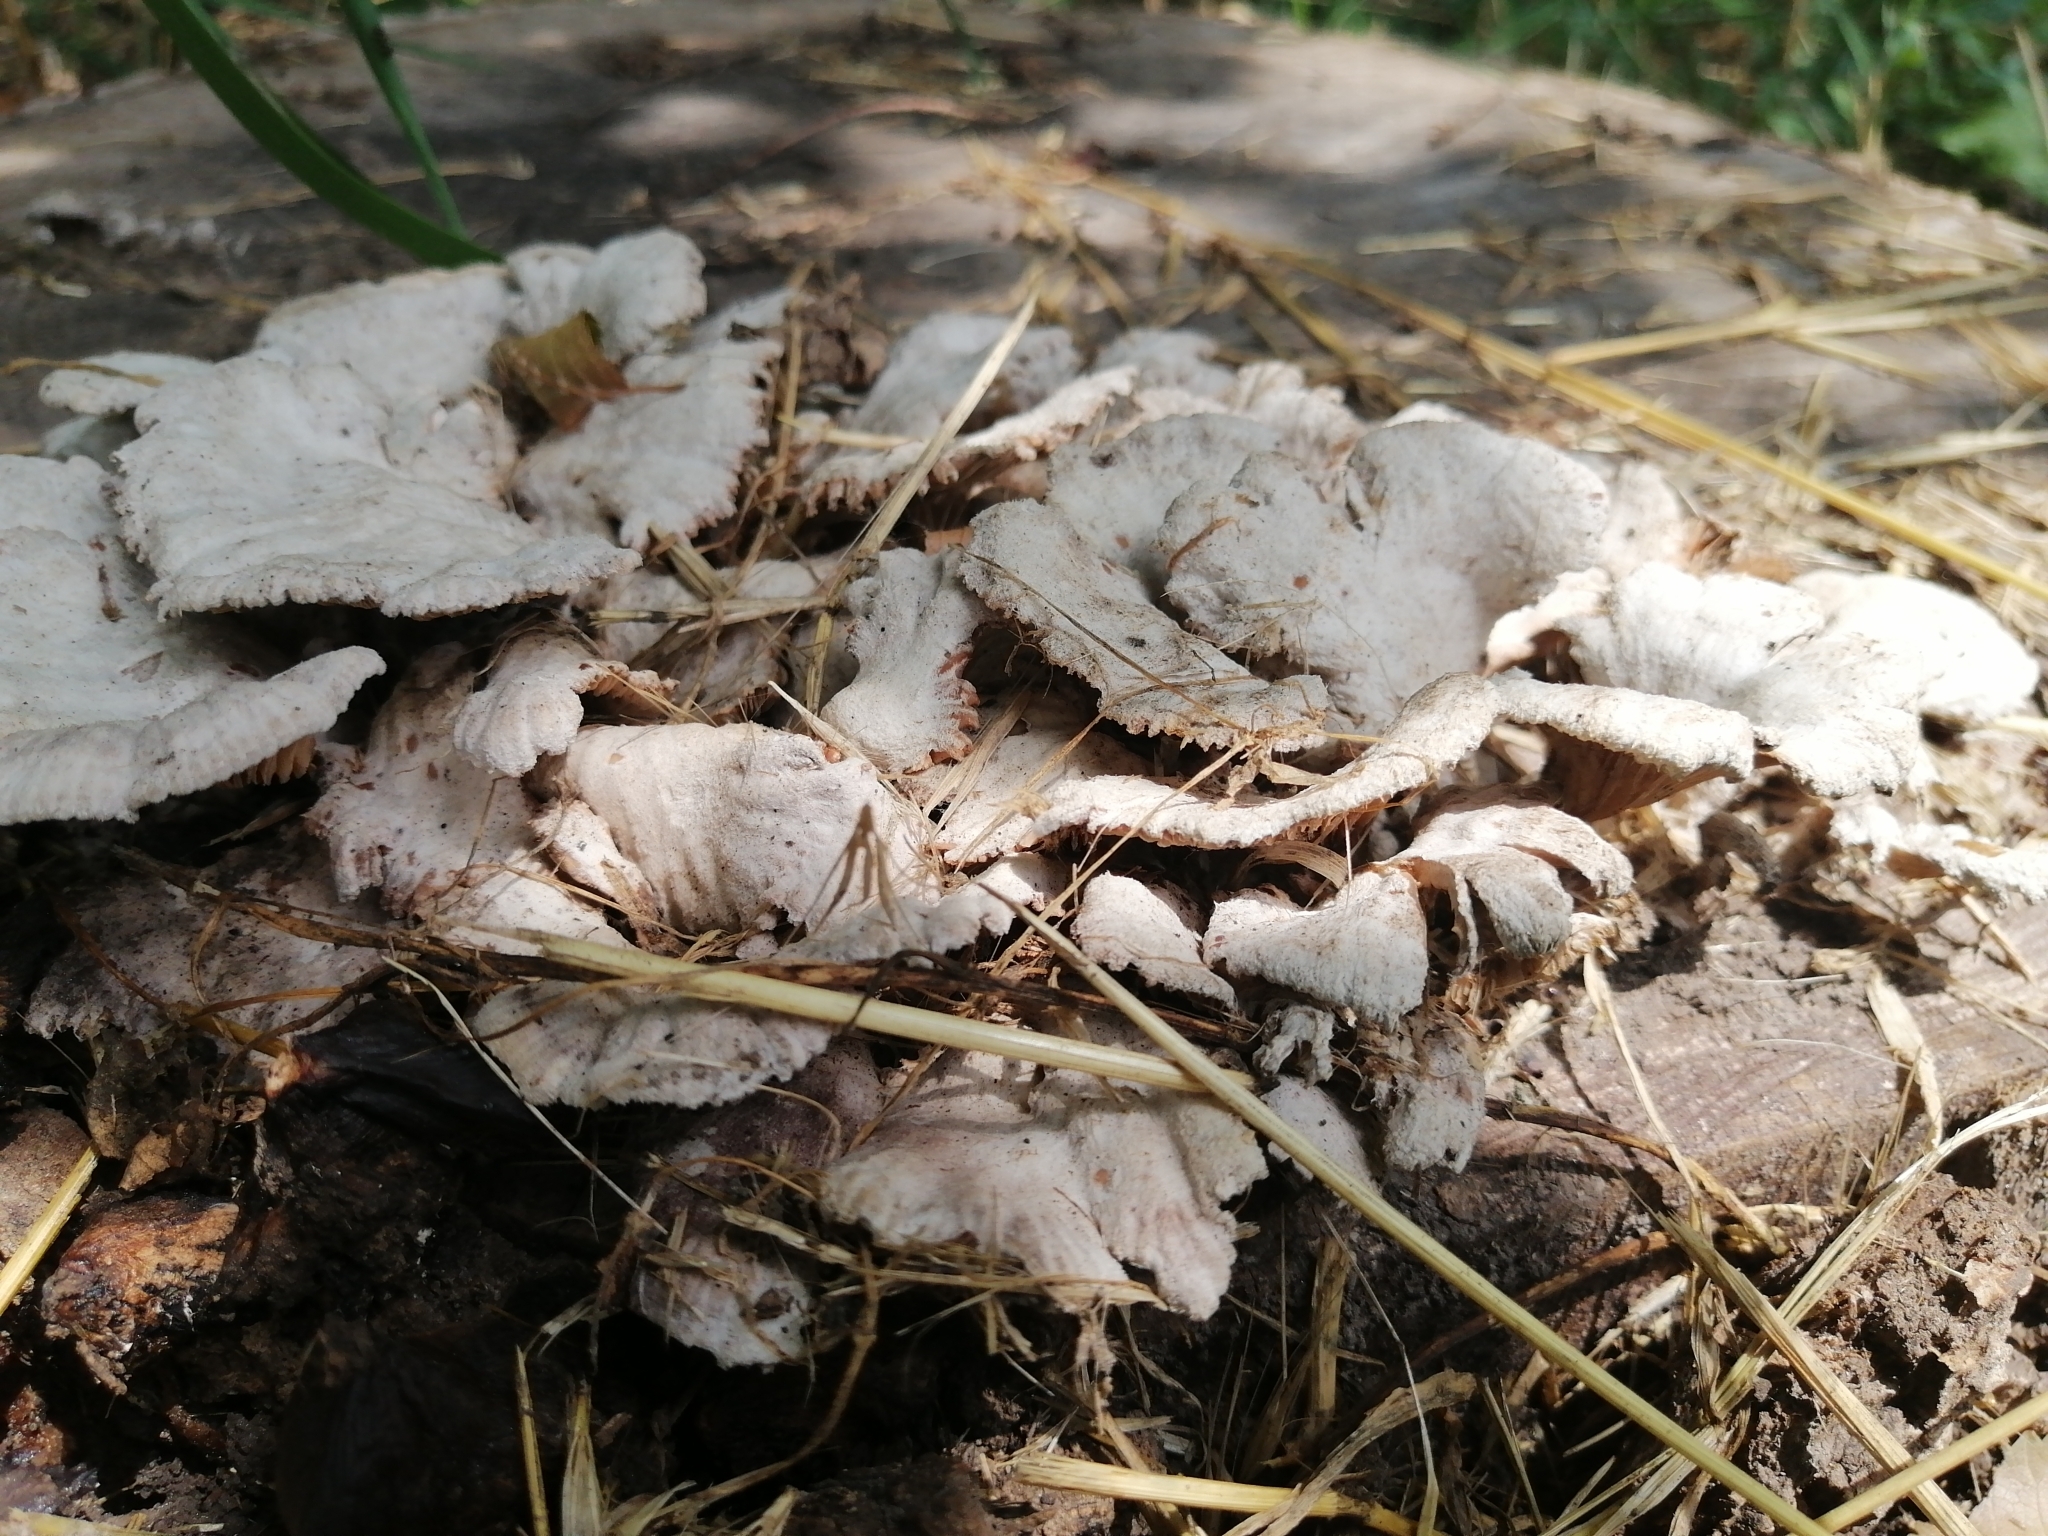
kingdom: Fungi
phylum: Basidiomycota
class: Agaricomycetes
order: Agaricales
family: Schizophyllaceae
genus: Schizophyllum
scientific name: Schizophyllum commune
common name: Common porecrust
